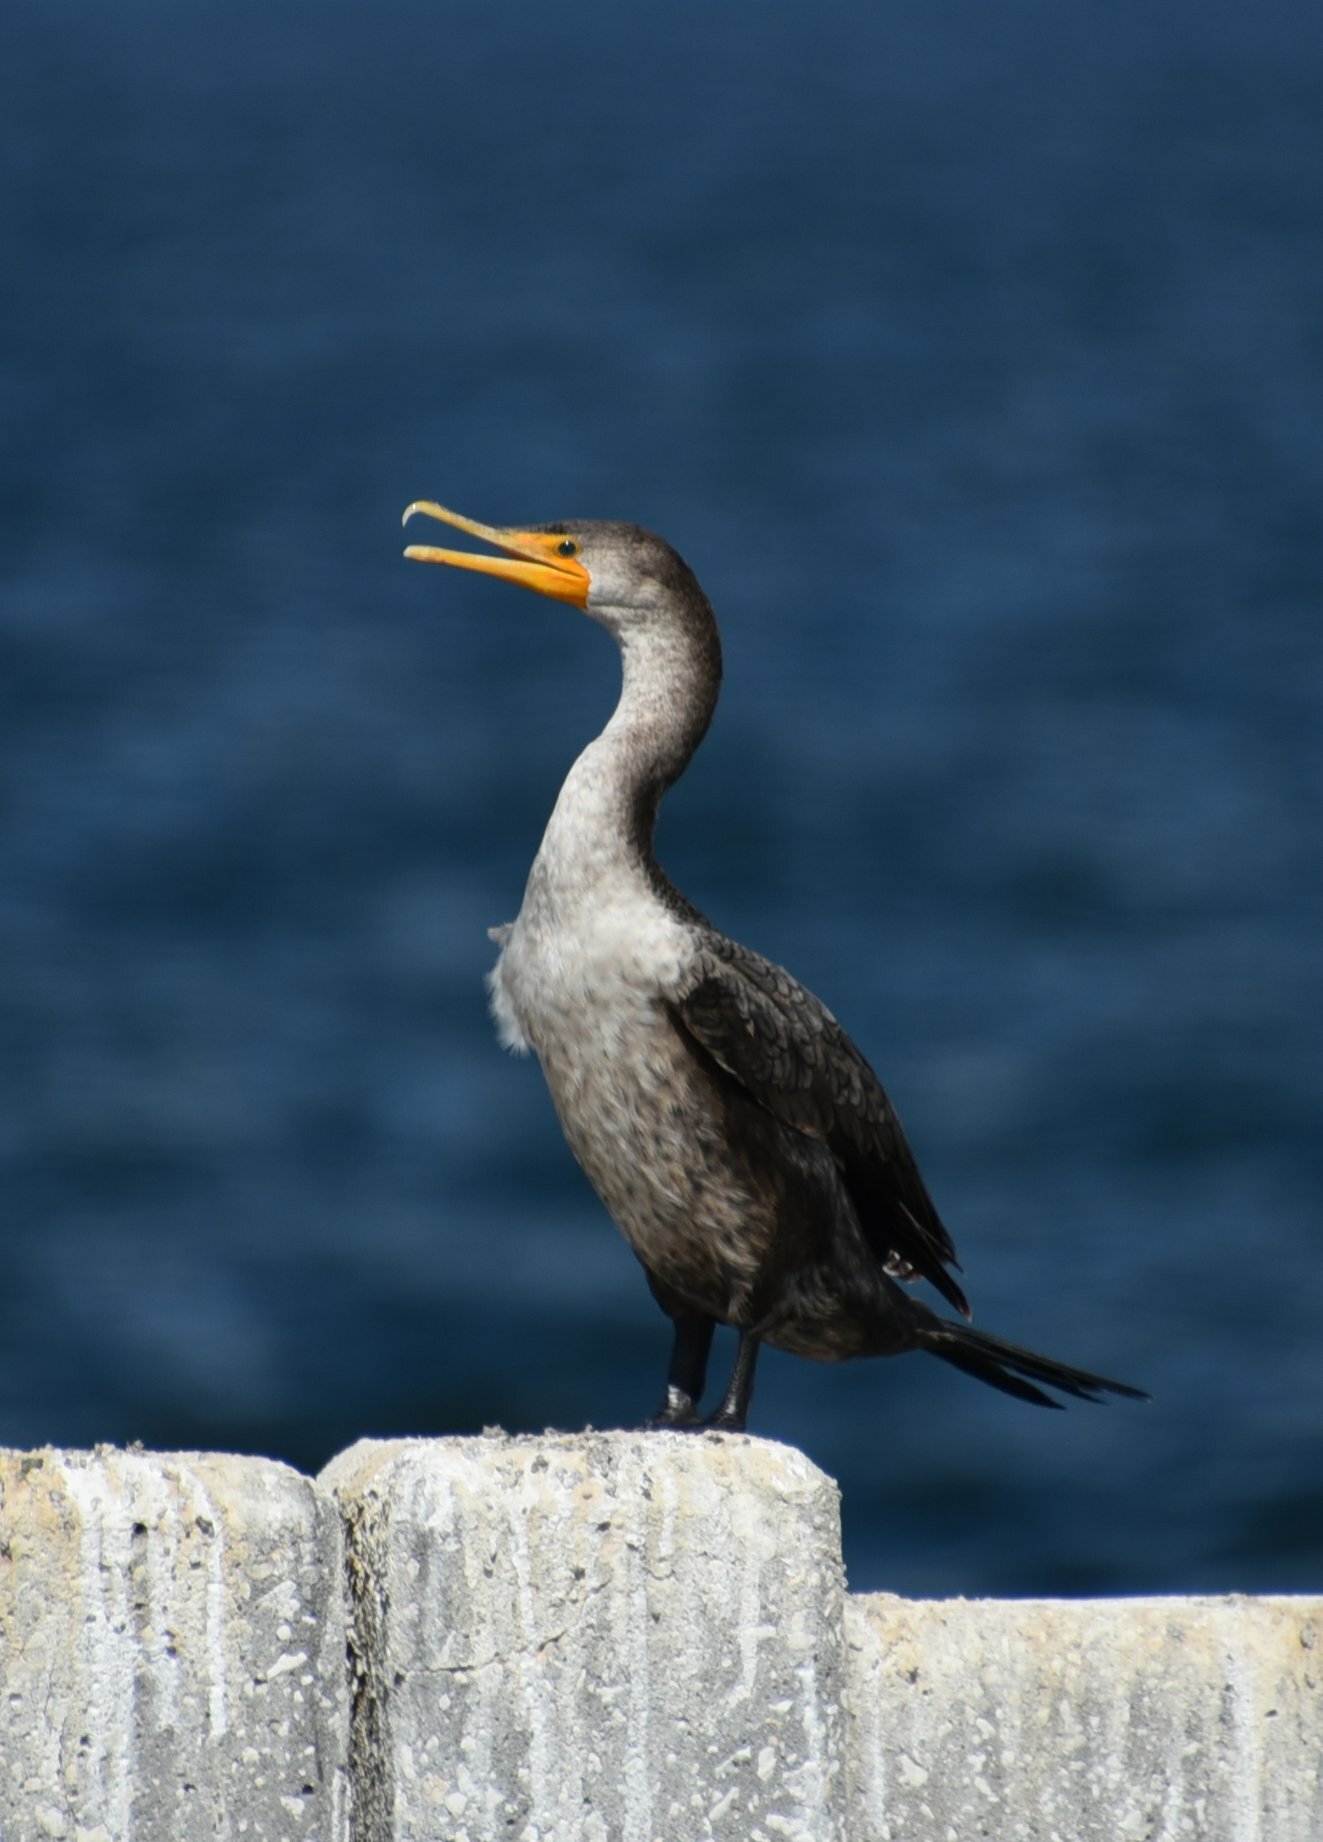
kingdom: Animalia
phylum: Chordata
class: Aves
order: Suliformes
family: Phalacrocoracidae
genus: Phalacrocorax
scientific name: Phalacrocorax auritus
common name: Double-crested cormorant
